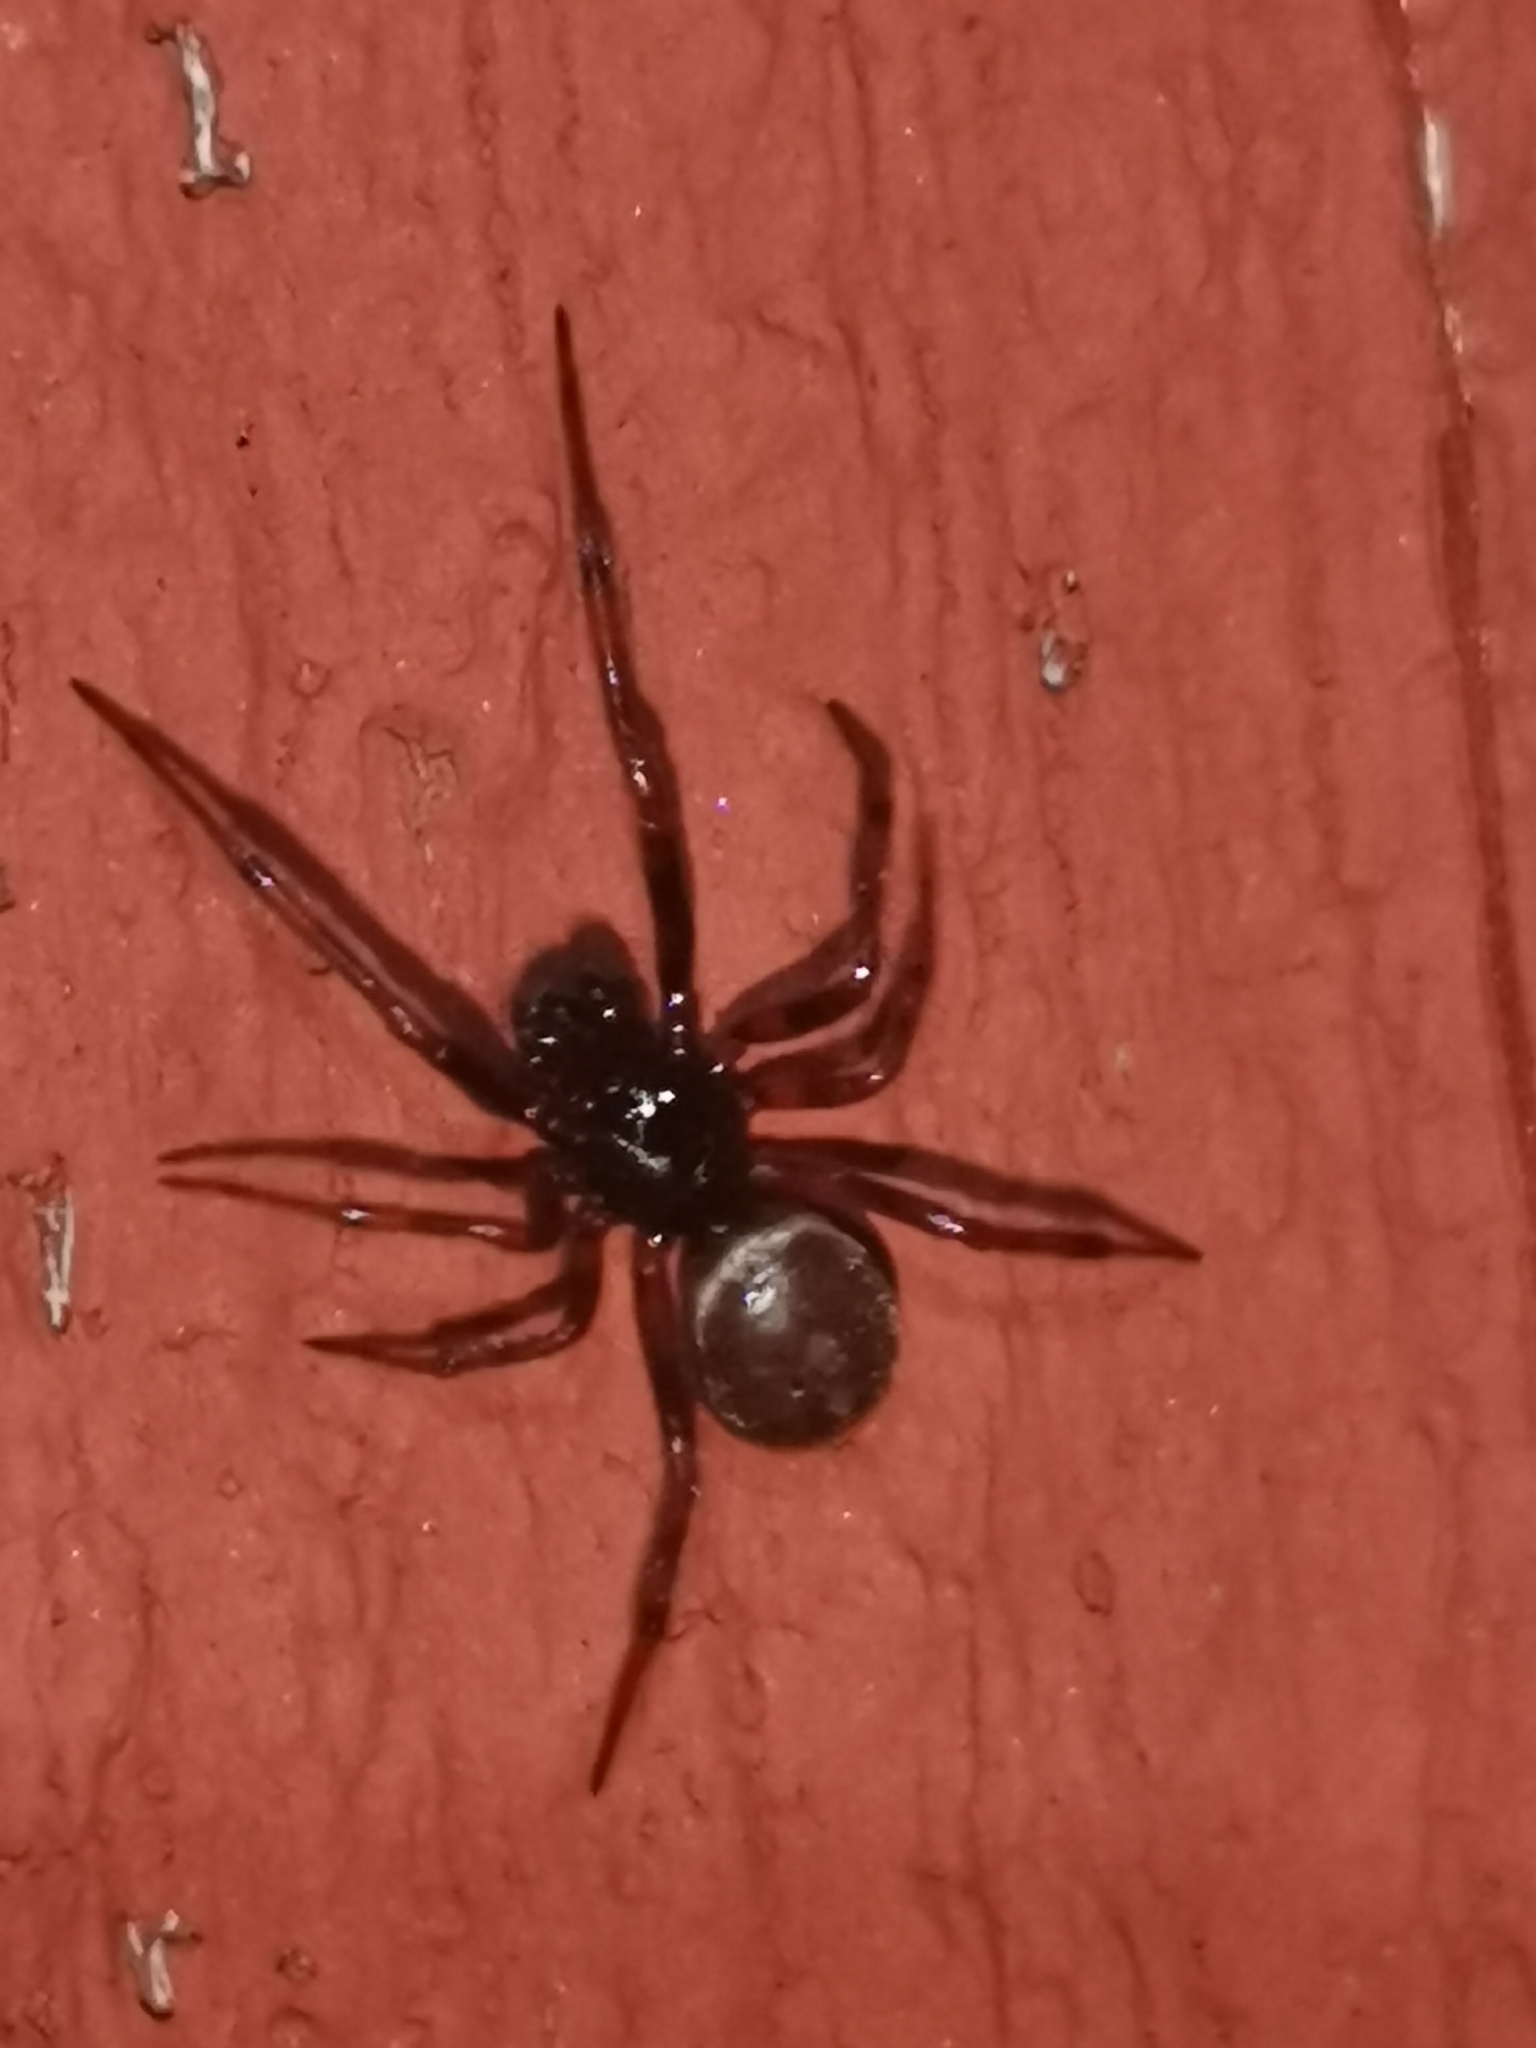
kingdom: Animalia
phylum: Arthropoda
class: Arachnida
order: Araneae
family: Theridiidae
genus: Steatoda
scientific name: Steatoda bipunctata
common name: False widow
